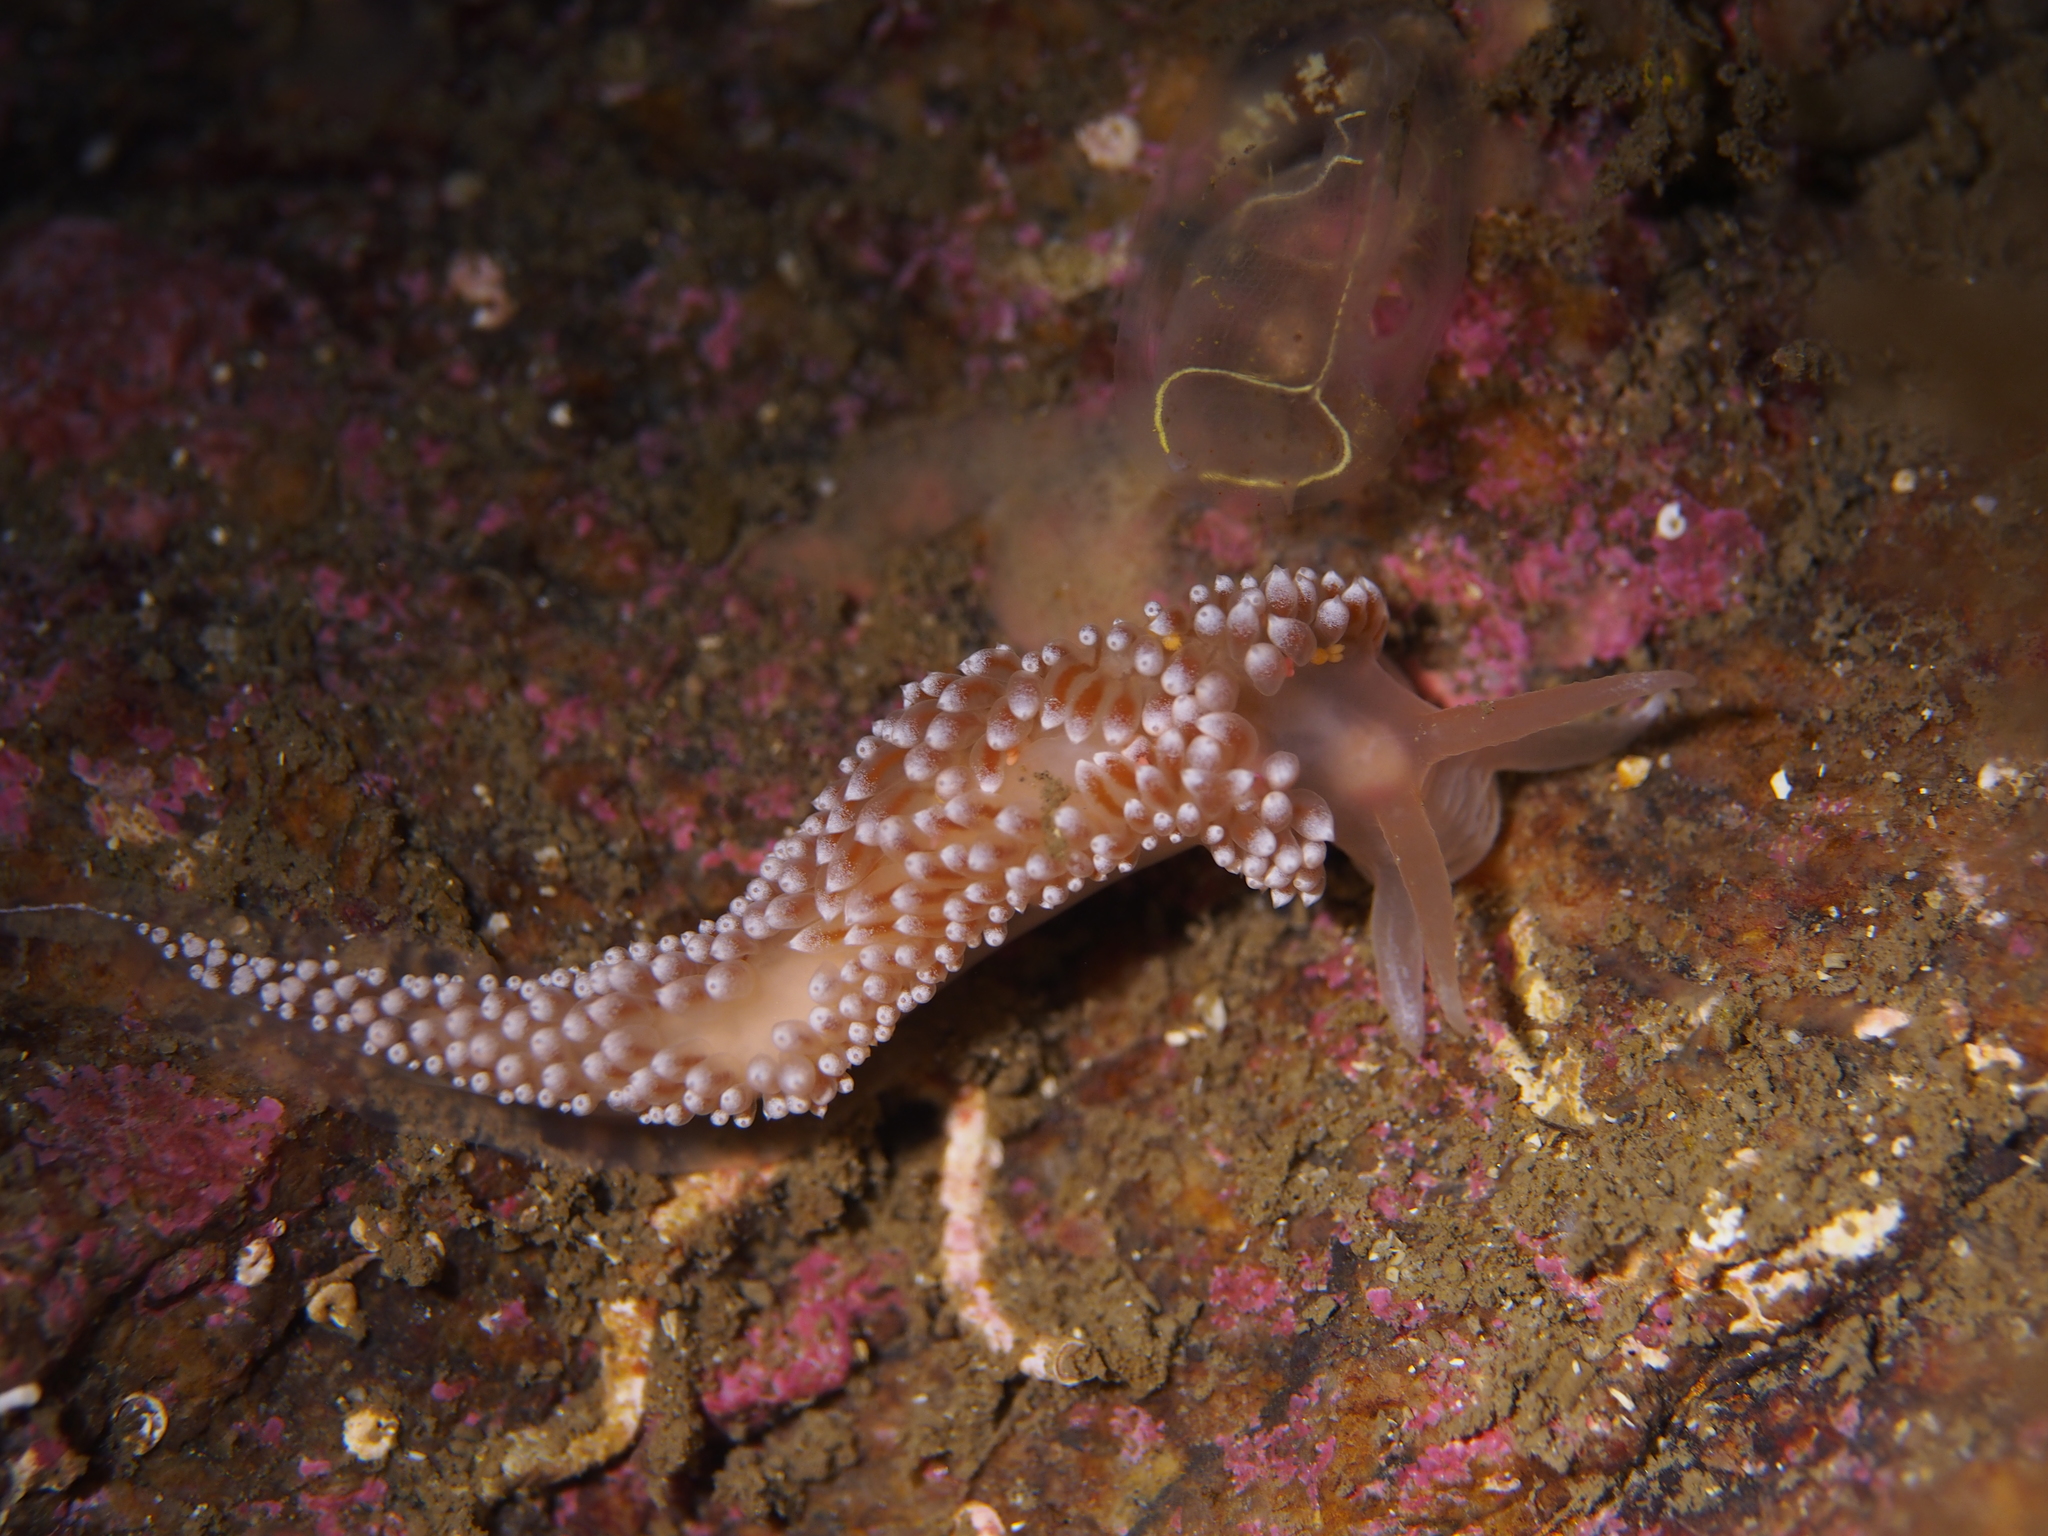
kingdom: Animalia
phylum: Mollusca
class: Gastropoda
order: Nudibranchia
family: Coryphellidae
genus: Coryphella
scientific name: Coryphella verrucosa
